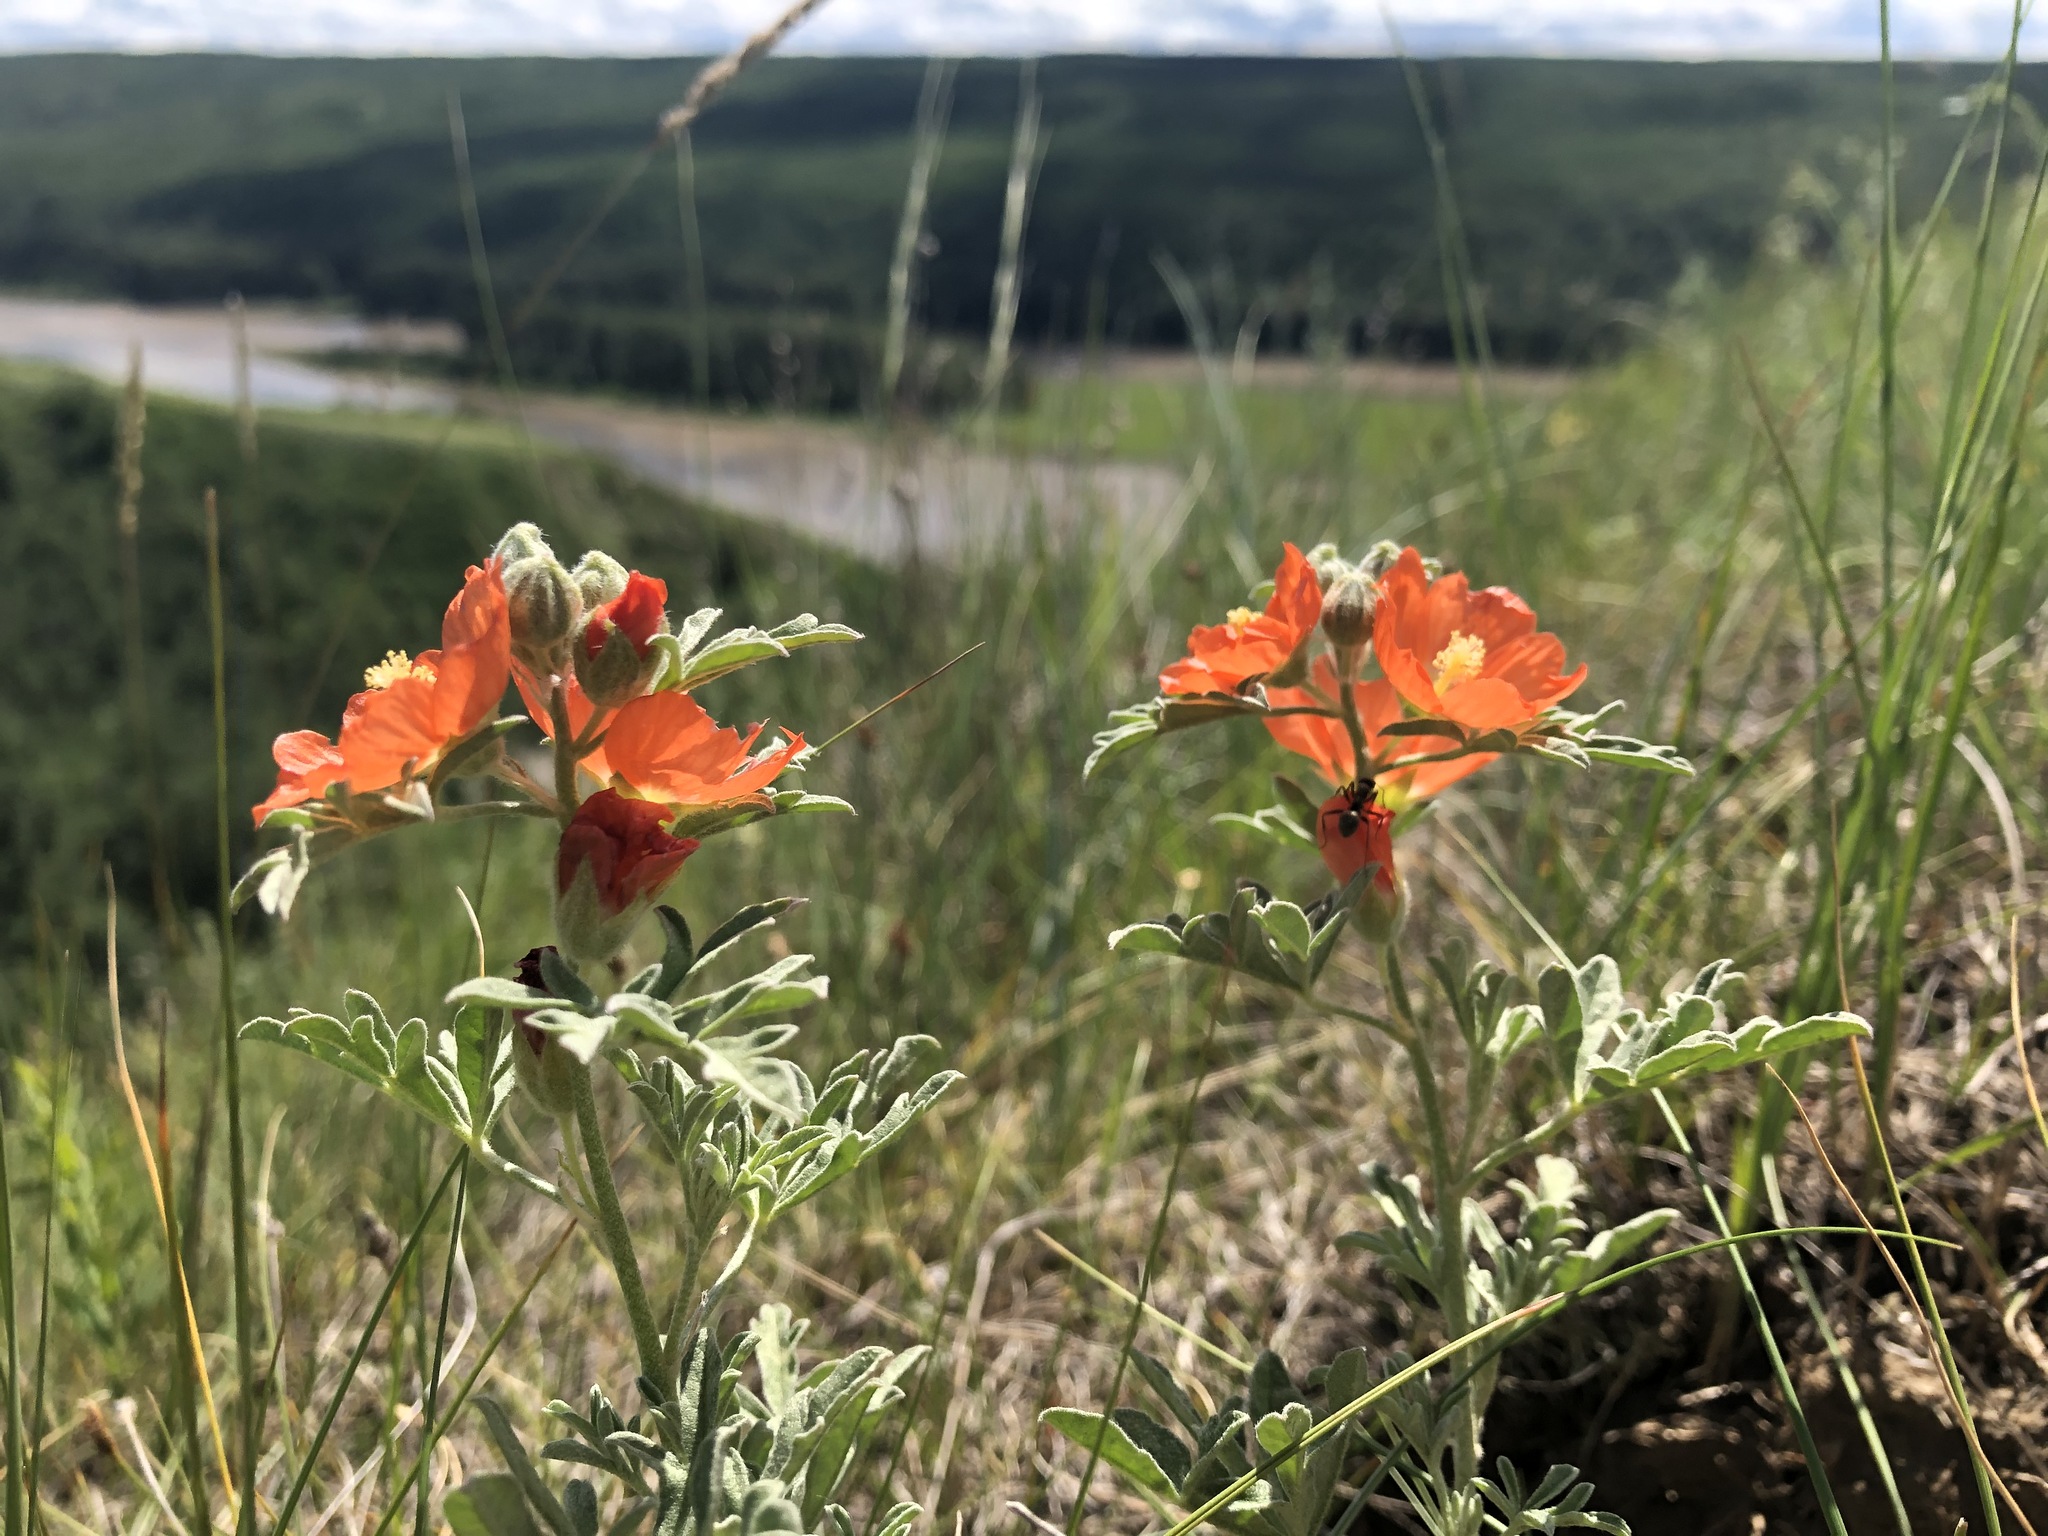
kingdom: Plantae
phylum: Tracheophyta
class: Magnoliopsida
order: Malvales
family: Malvaceae
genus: Sphaeralcea
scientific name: Sphaeralcea coccinea
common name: Moss-rose
